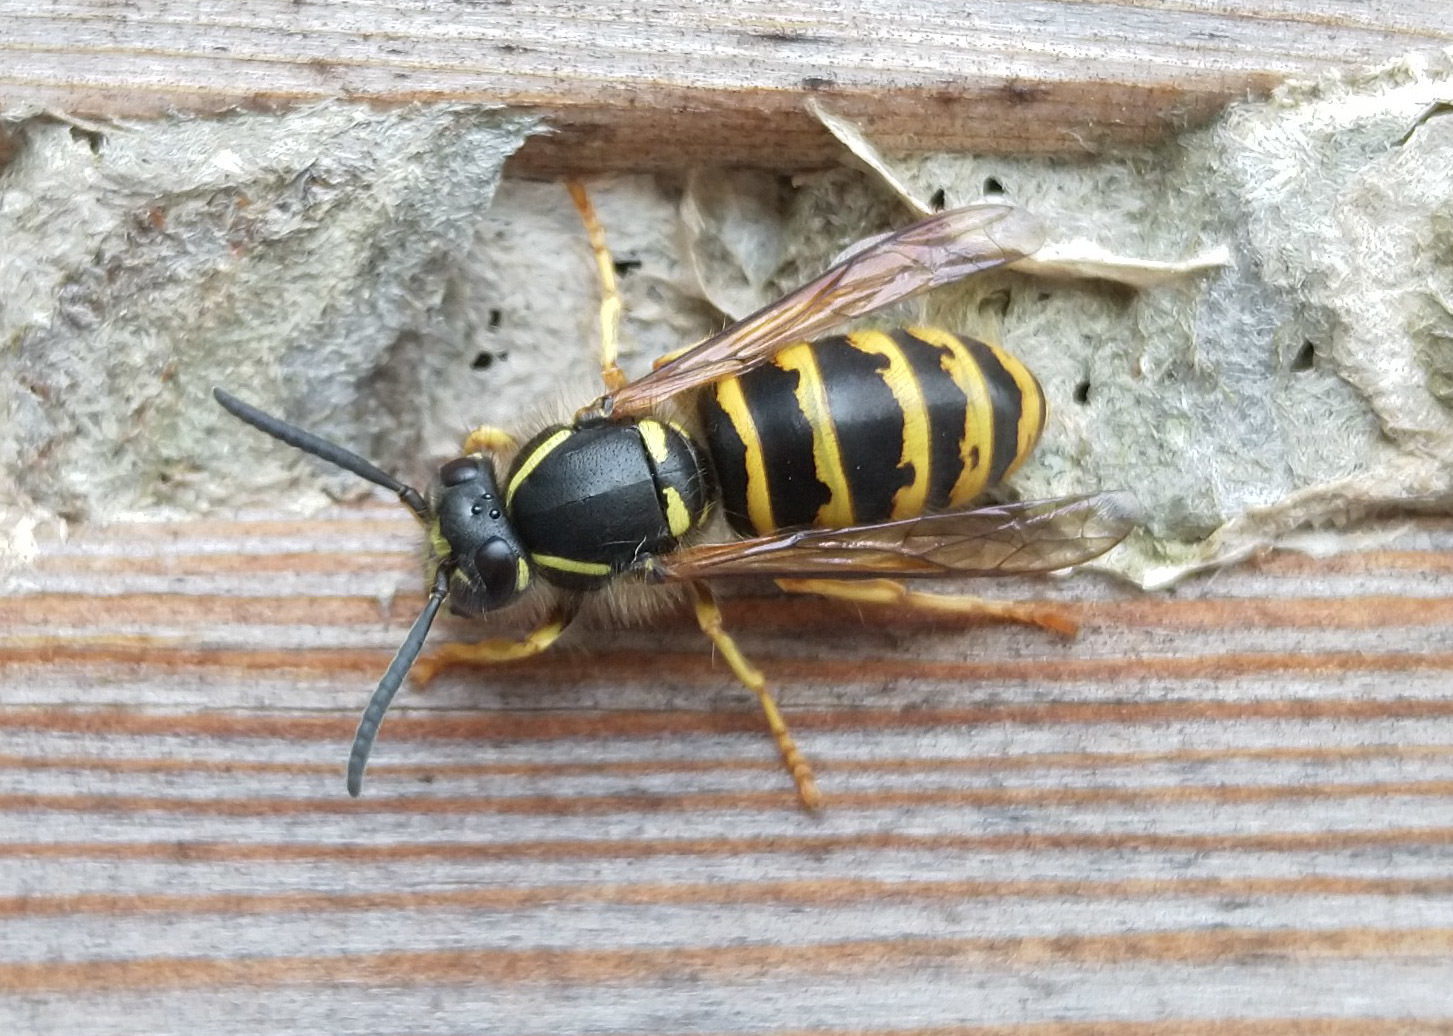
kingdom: Animalia
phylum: Arthropoda
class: Insecta
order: Hymenoptera
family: Vespidae
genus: Dolichovespula
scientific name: Dolichovespula saxonica
